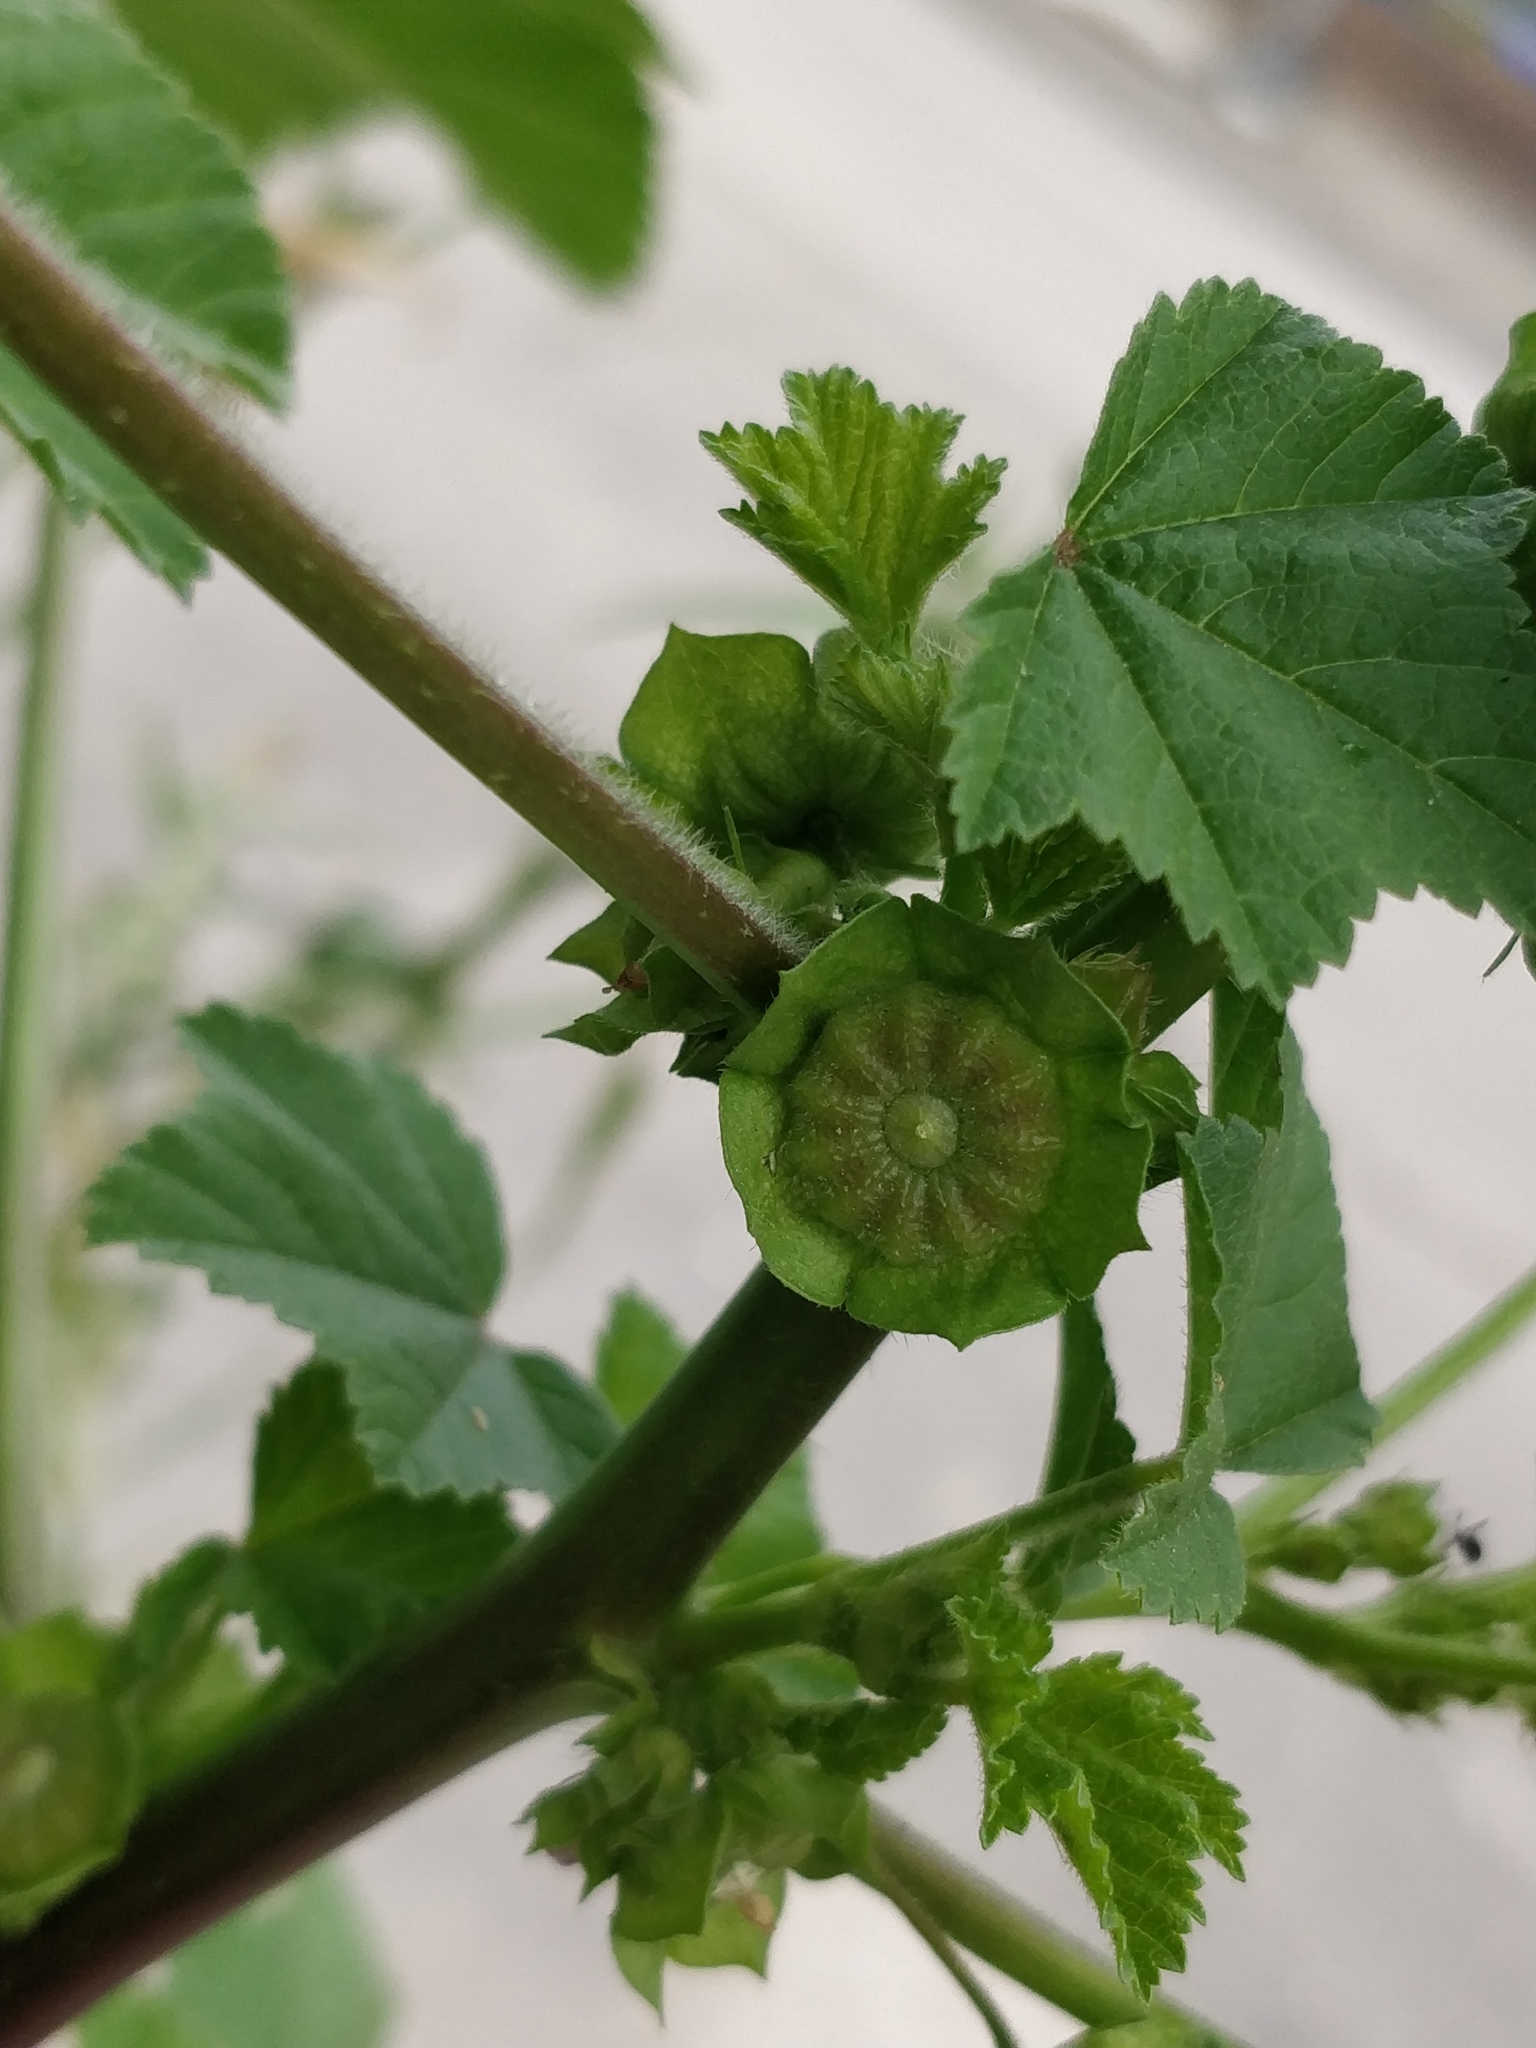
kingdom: Plantae
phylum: Tracheophyta
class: Magnoliopsida
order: Malvales
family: Malvaceae
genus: Malva
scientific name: Malva parviflora
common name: Least mallow
